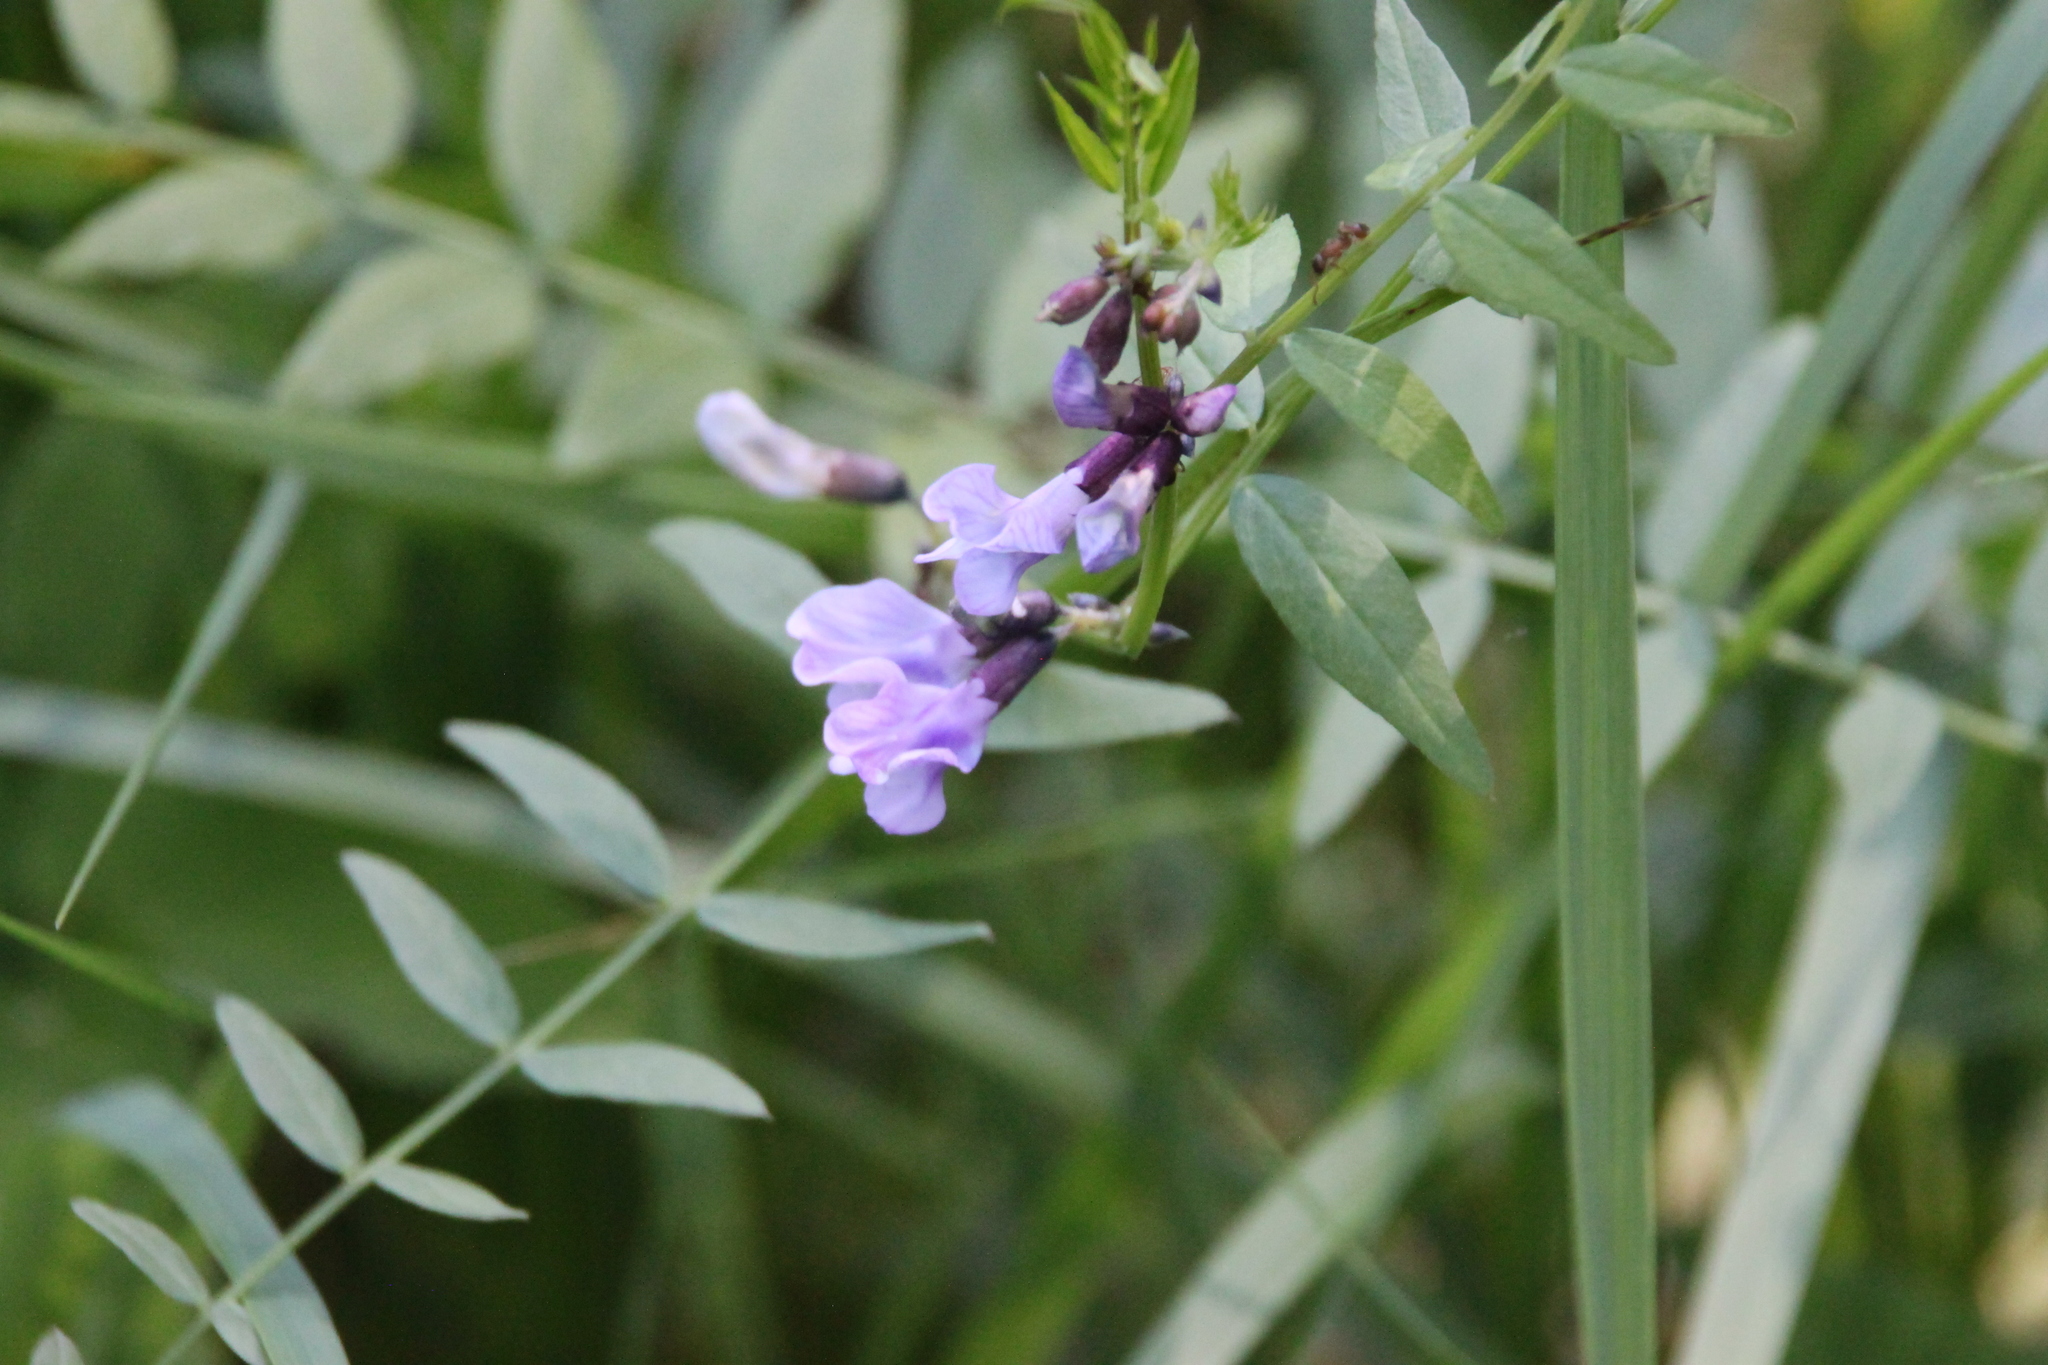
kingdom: Plantae
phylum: Tracheophyta
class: Magnoliopsida
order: Fabales
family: Fabaceae
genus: Vicia
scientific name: Vicia sepium
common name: Bush vetch
